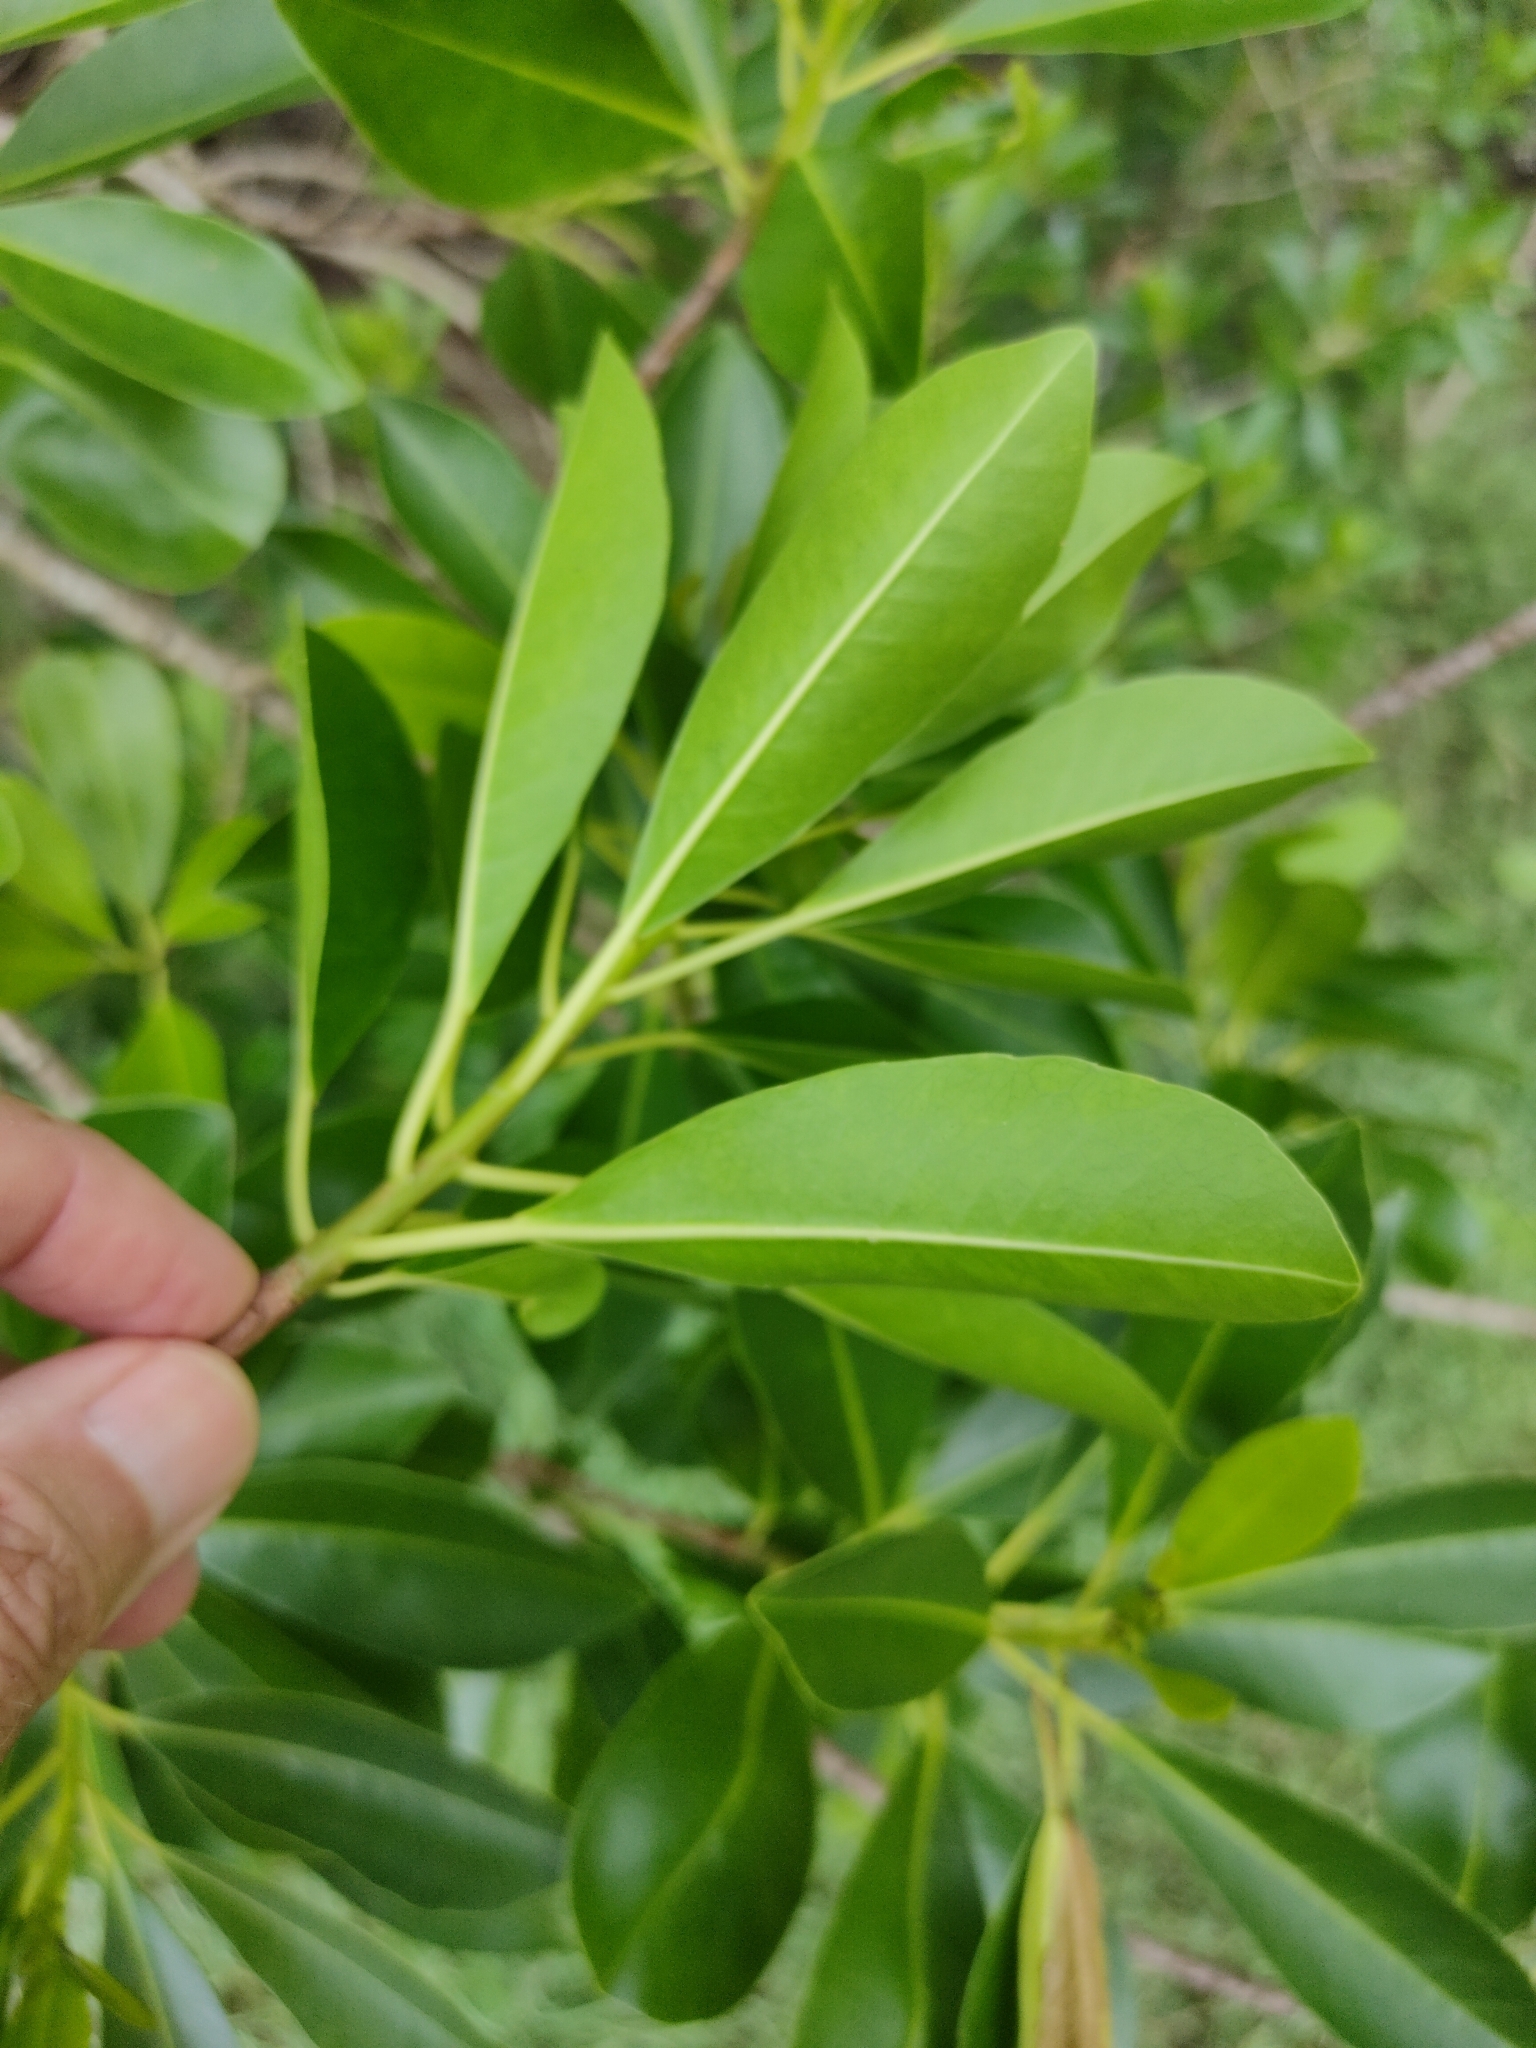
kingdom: Plantae
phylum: Tracheophyta
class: Magnoliopsida
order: Malpighiales
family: Euphorbiaceae
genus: Excoecaria
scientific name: Excoecaria agallocha
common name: River poisontree
